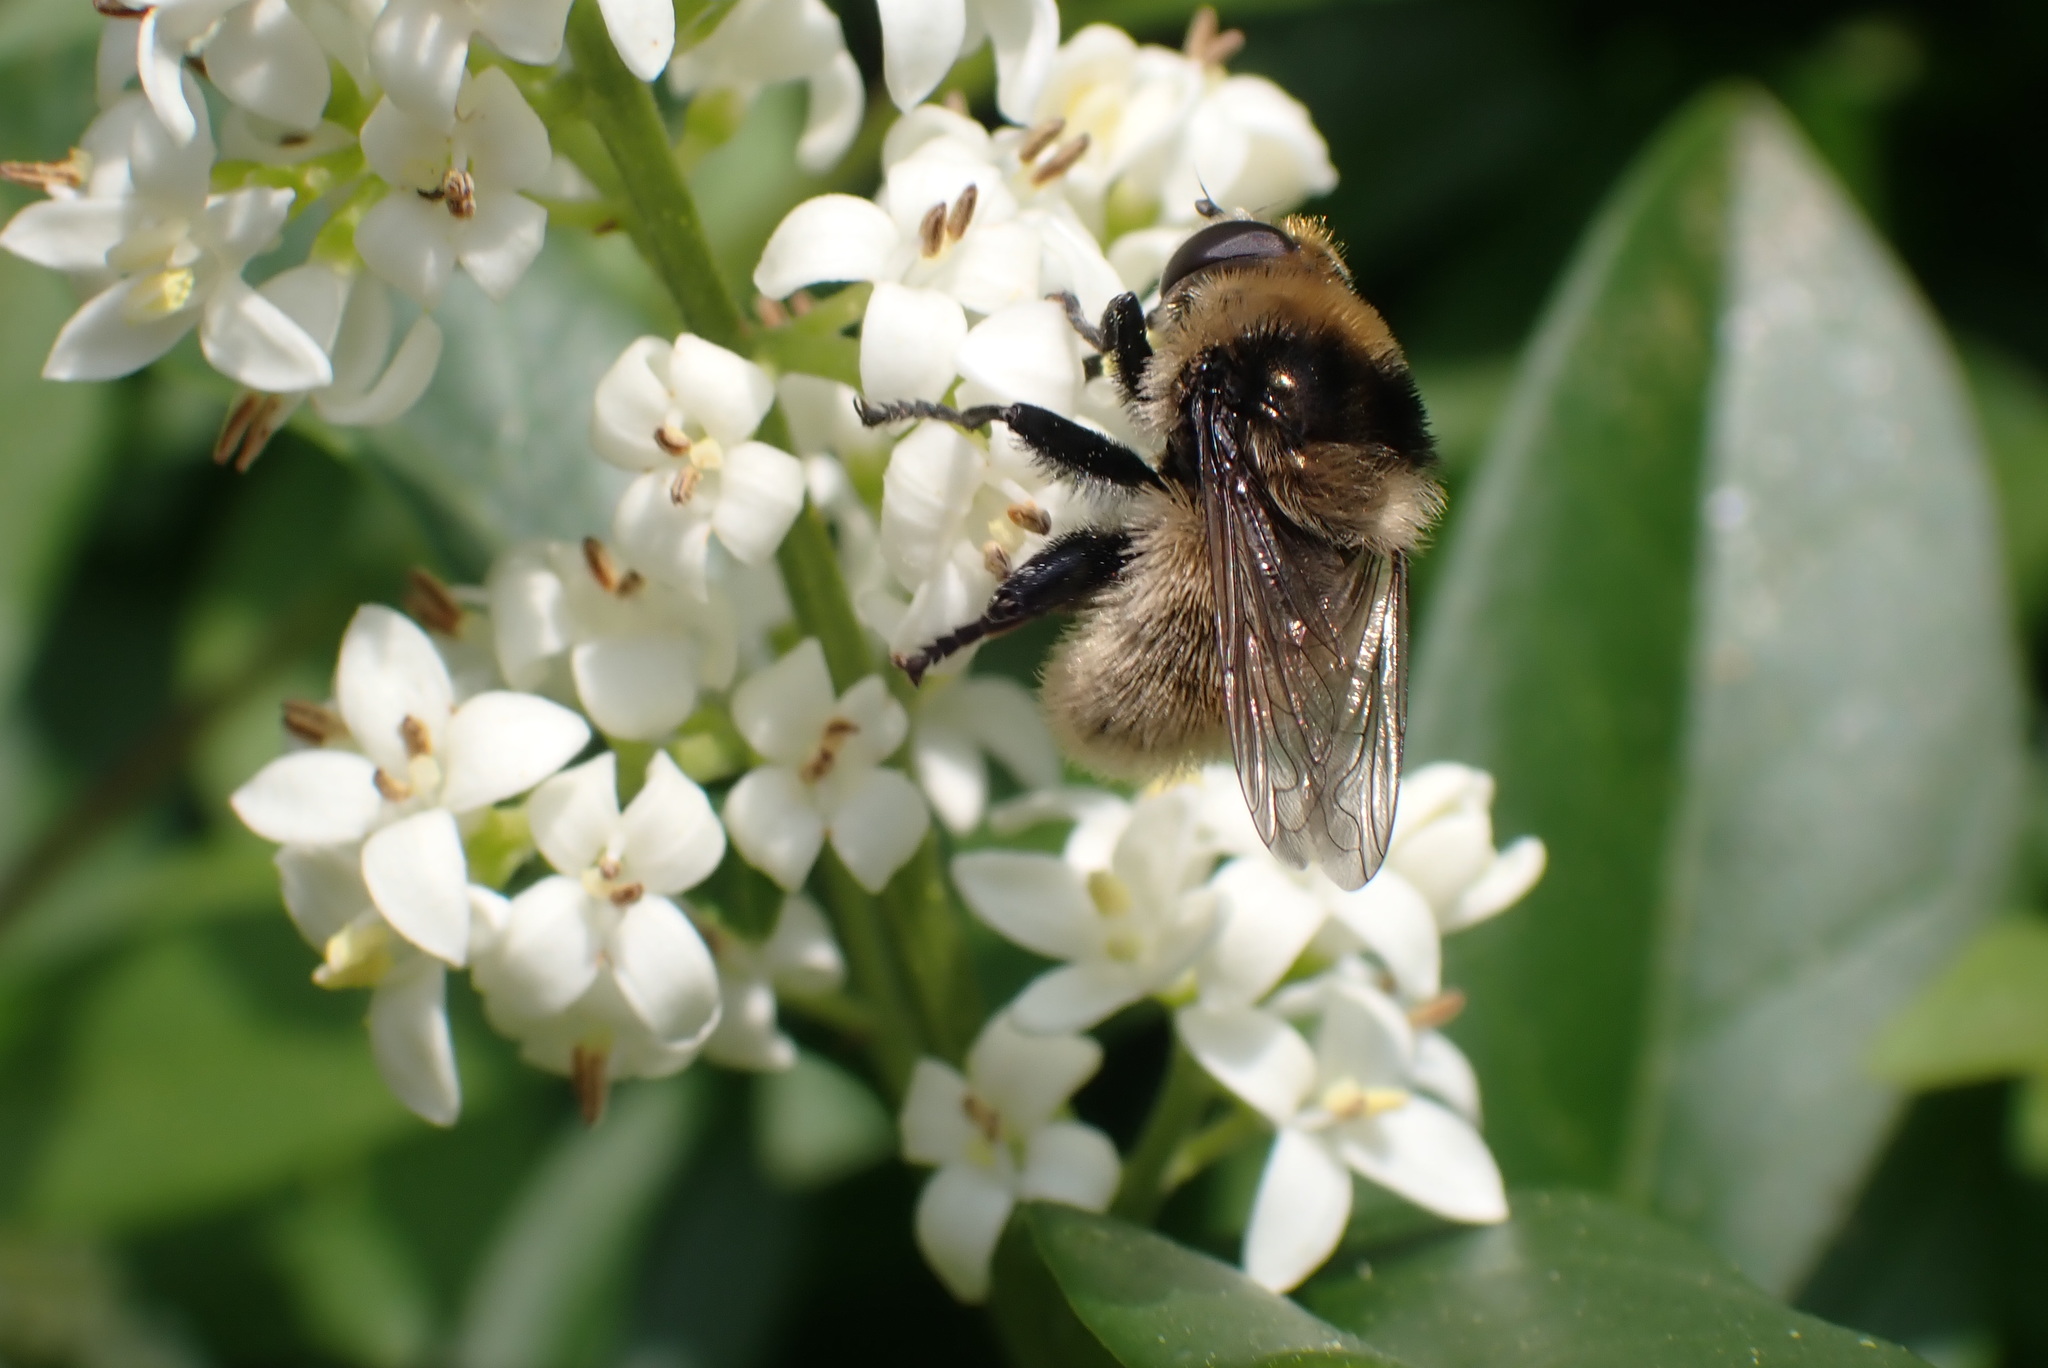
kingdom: Animalia
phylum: Arthropoda
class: Insecta
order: Diptera
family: Syrphidae
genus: Merodon
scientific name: Merodon equestris
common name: Greater bulb-fly
